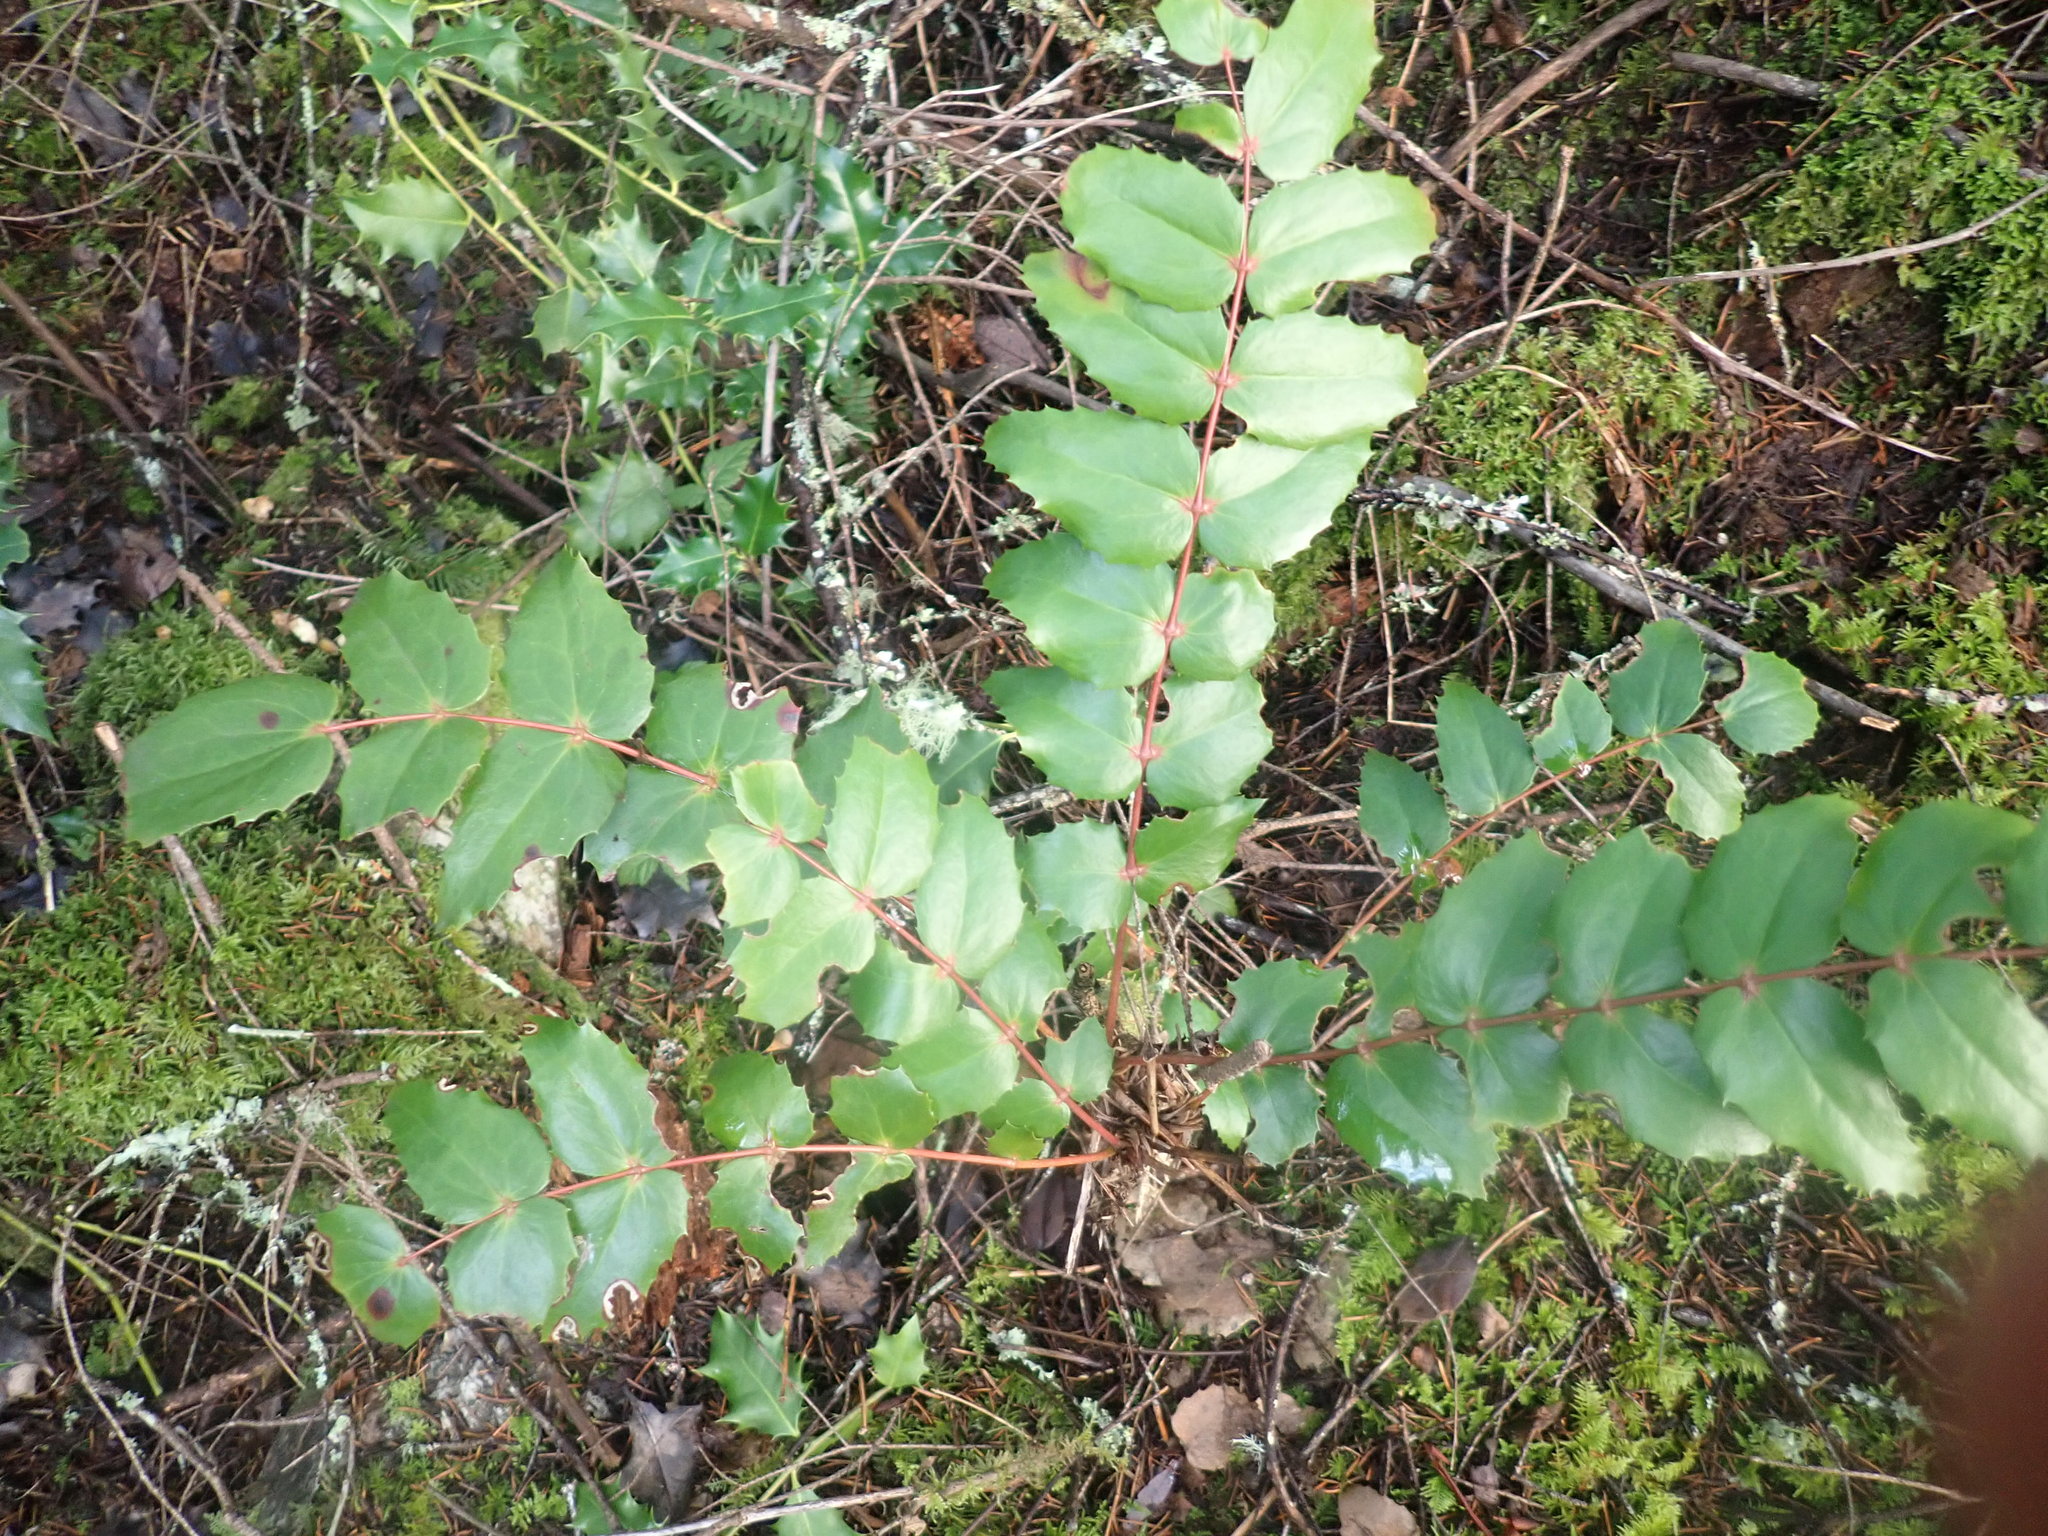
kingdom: Plantae
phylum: Tracheophyta
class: Magnoliopsida
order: Ranunculales
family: Berberidaceae
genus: Mahonia
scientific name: Mahonia nervosa
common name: Cascade oregon-grape
